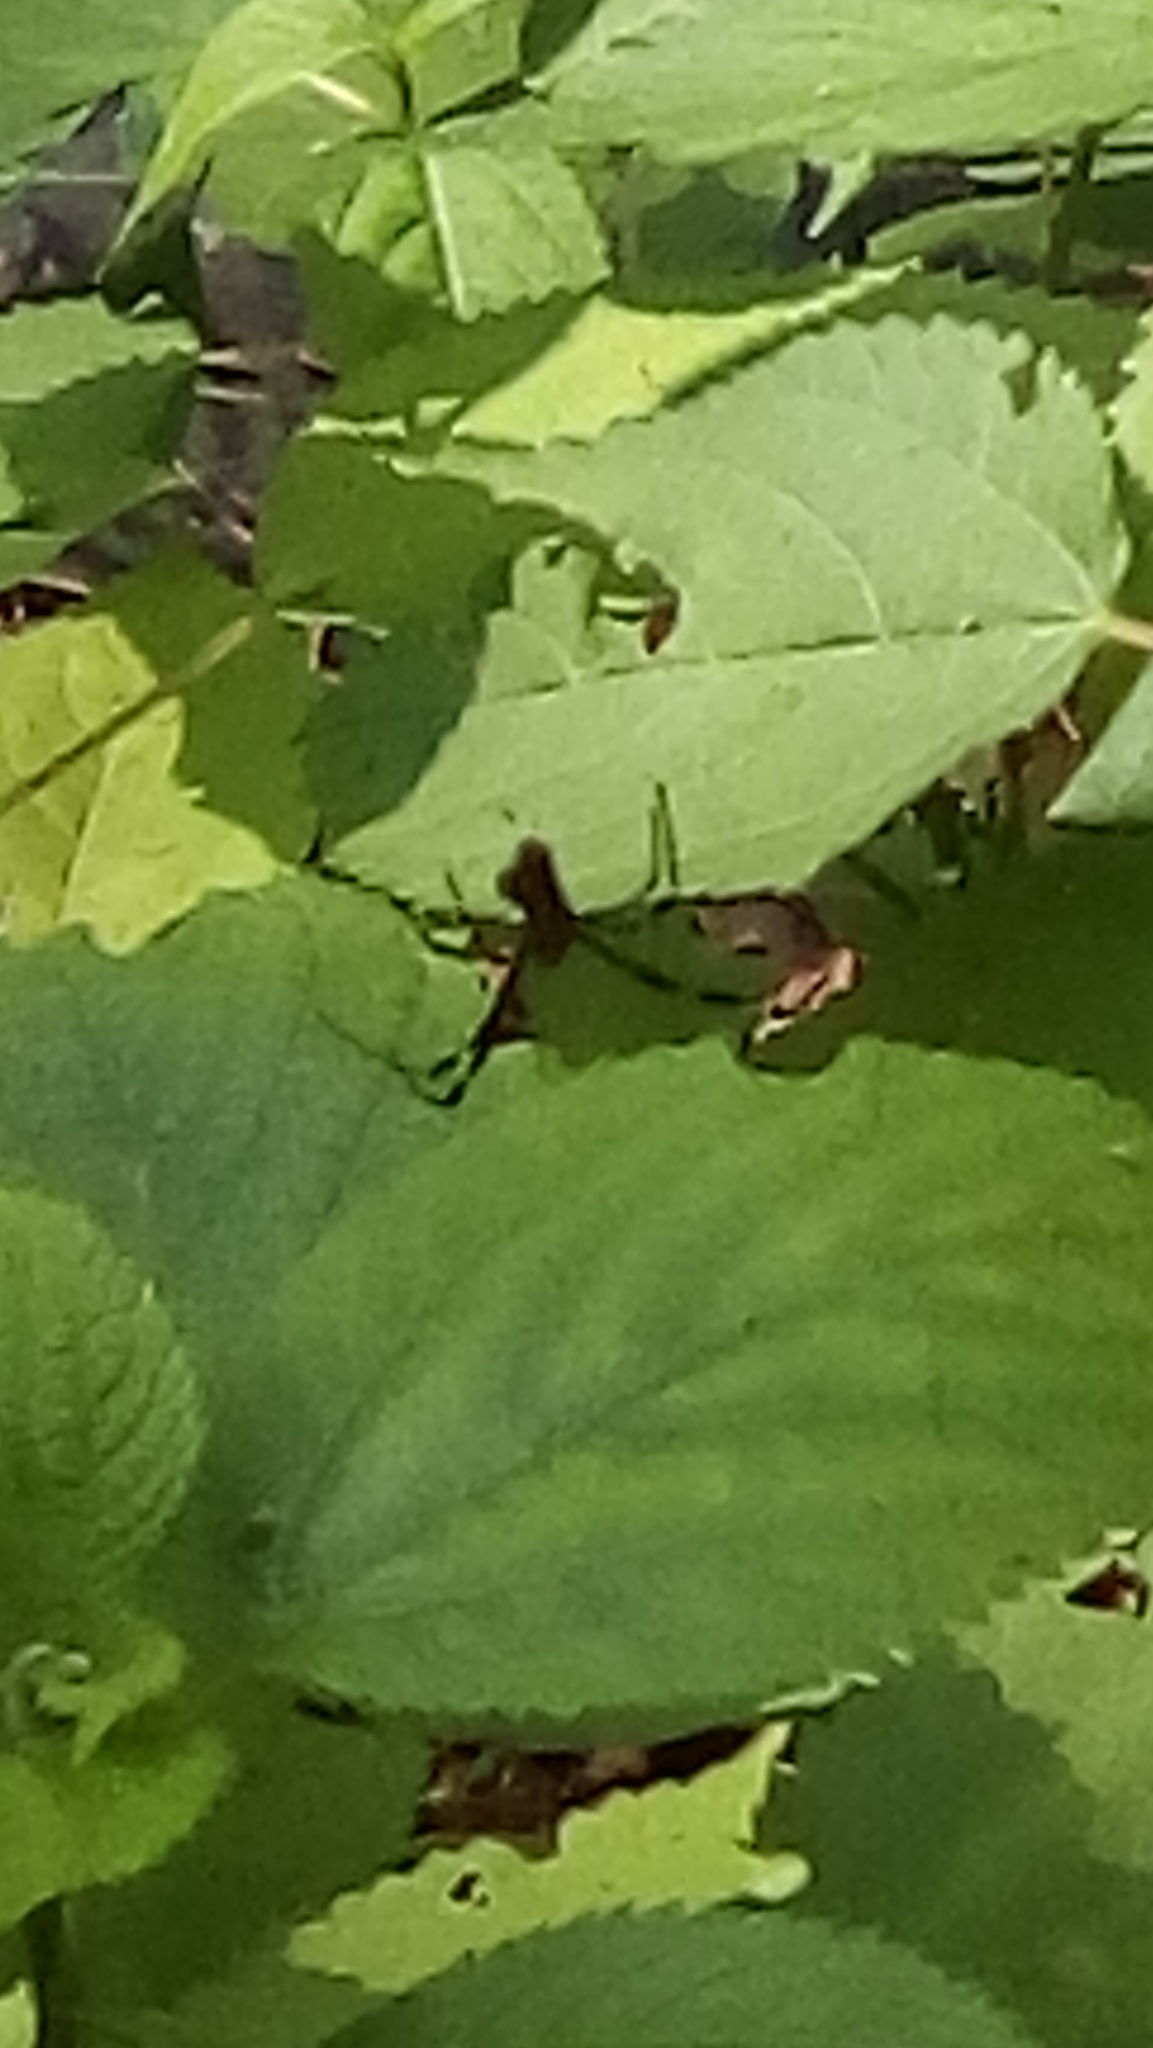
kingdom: Animalia
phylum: Arthropoda
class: Arachnida
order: Araneae
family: Araneidae
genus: Trichonephila
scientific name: Trichonephila clavipes
